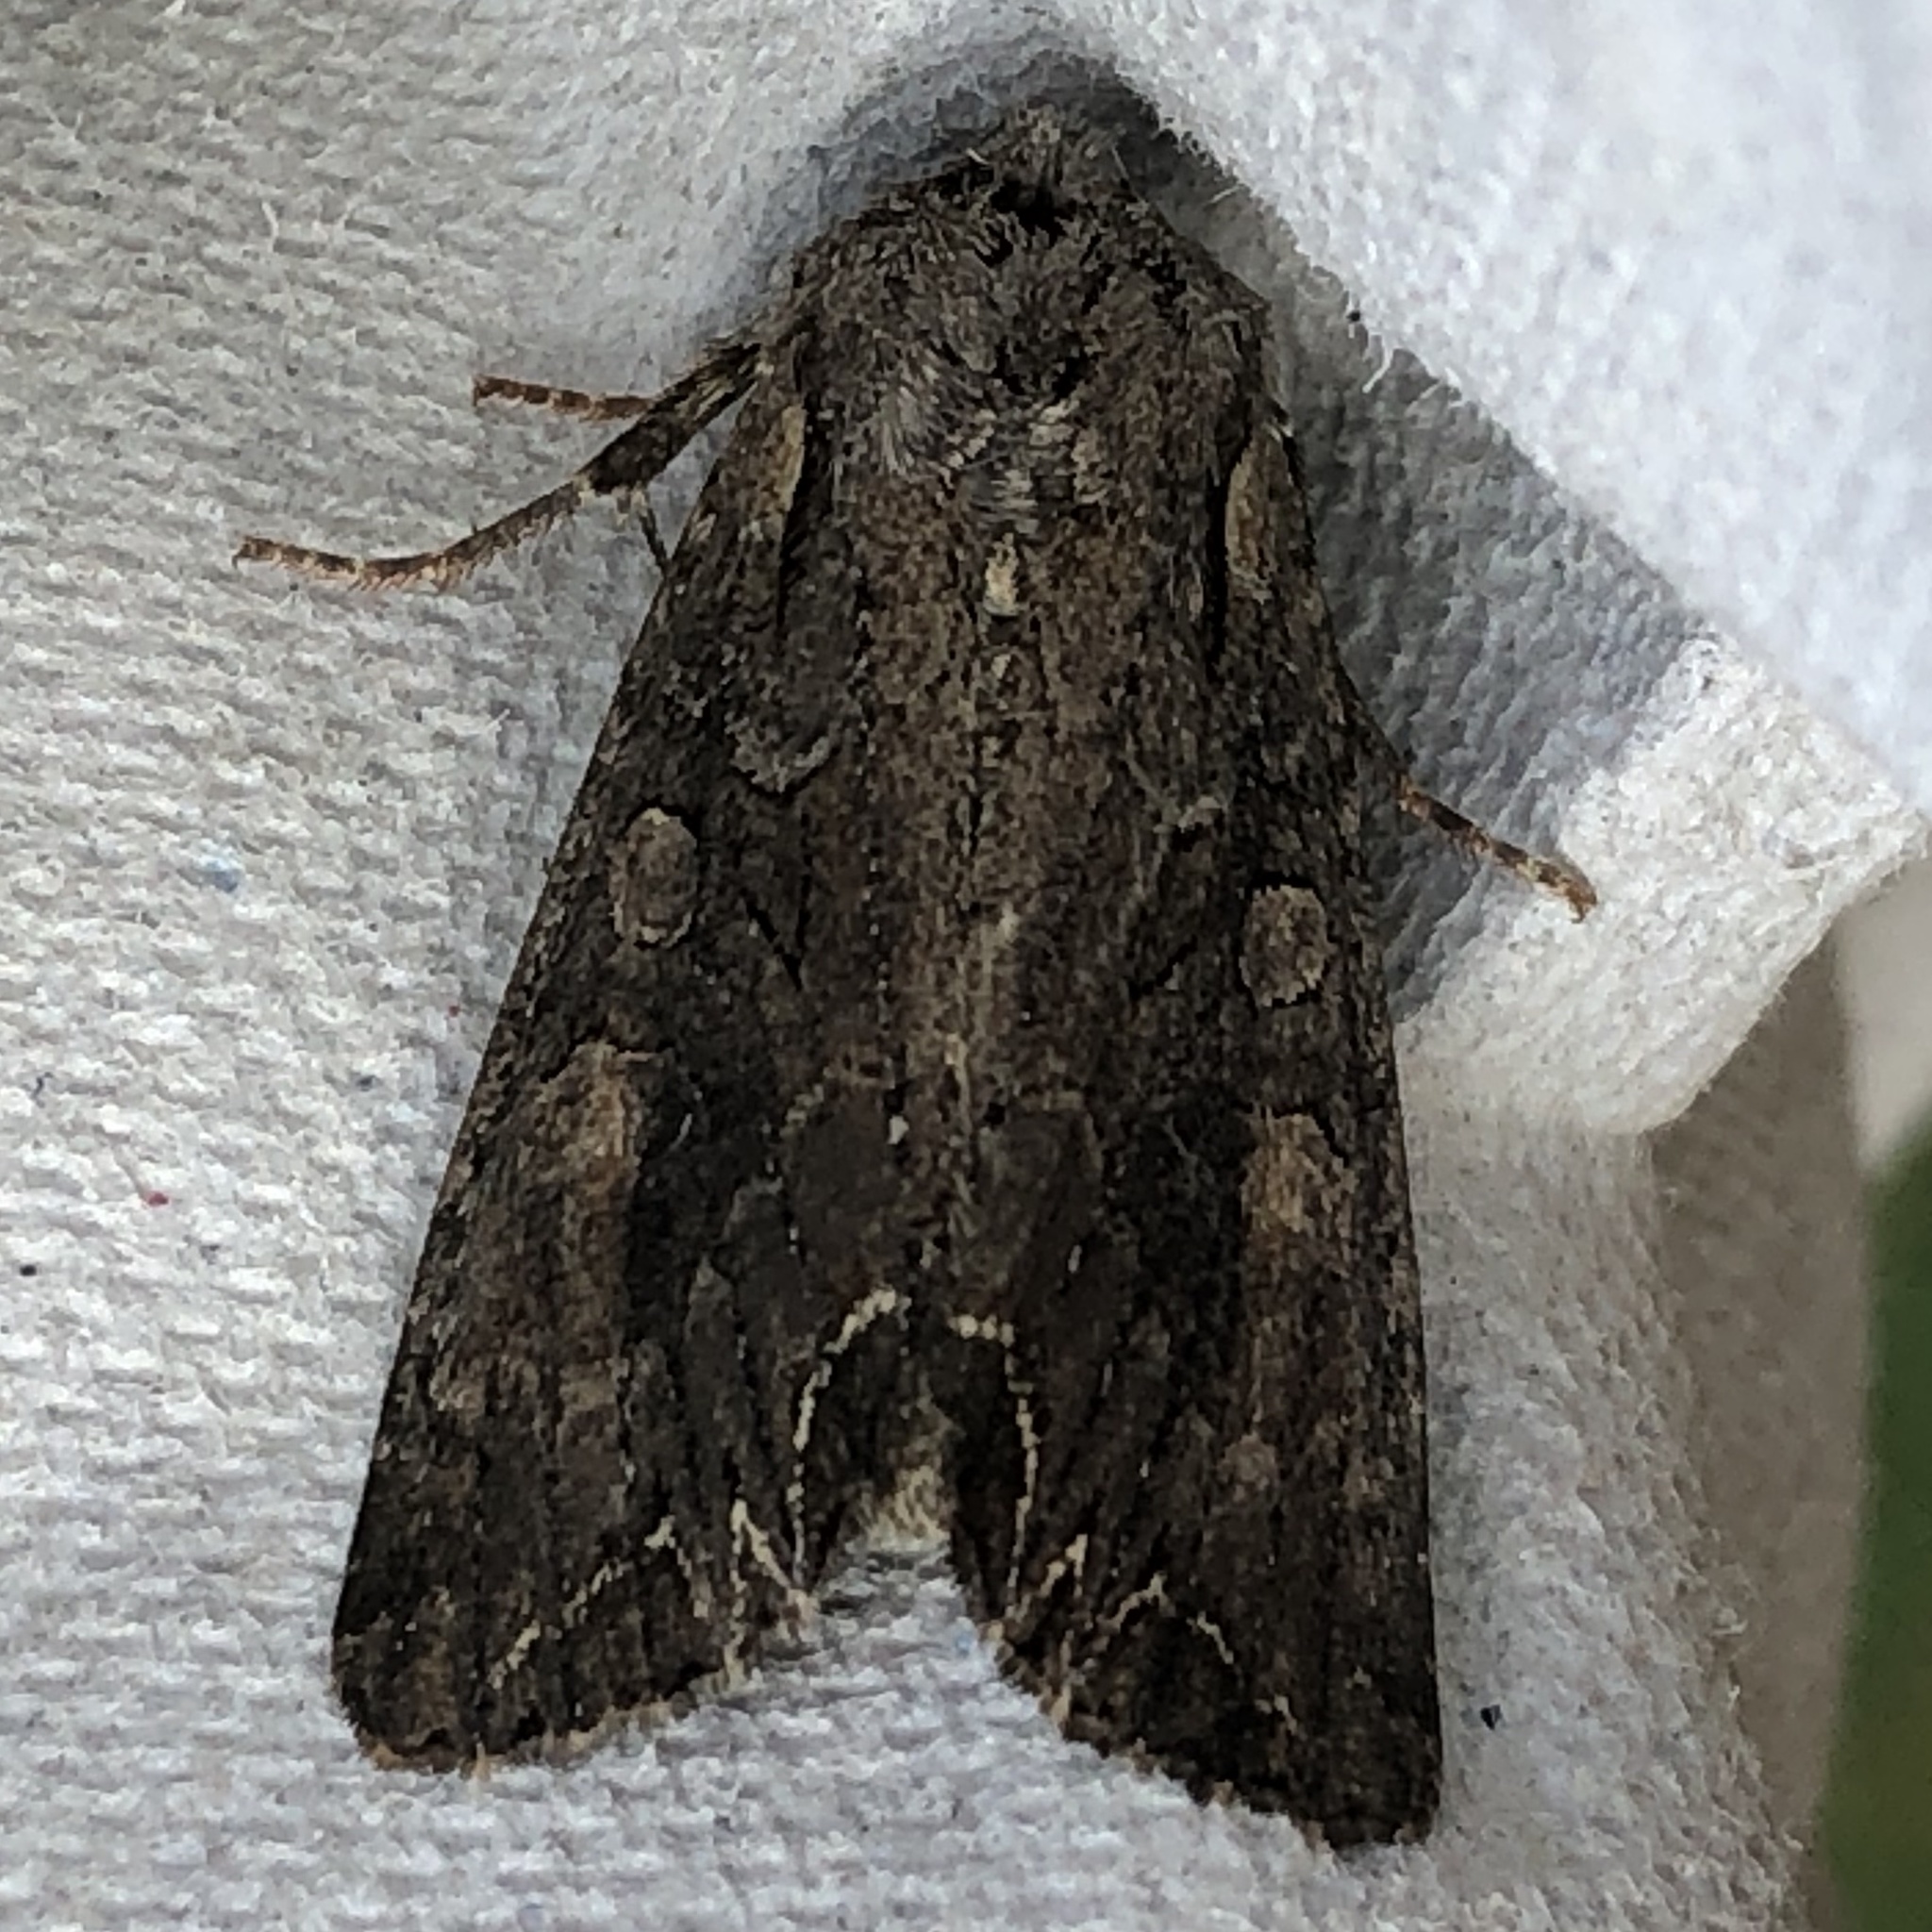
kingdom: Animalia
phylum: Arthropoda
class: Insecta
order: Lepidoptera
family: Noctuidae
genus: Apamea
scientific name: Apamea monoglypha
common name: Dark arches
